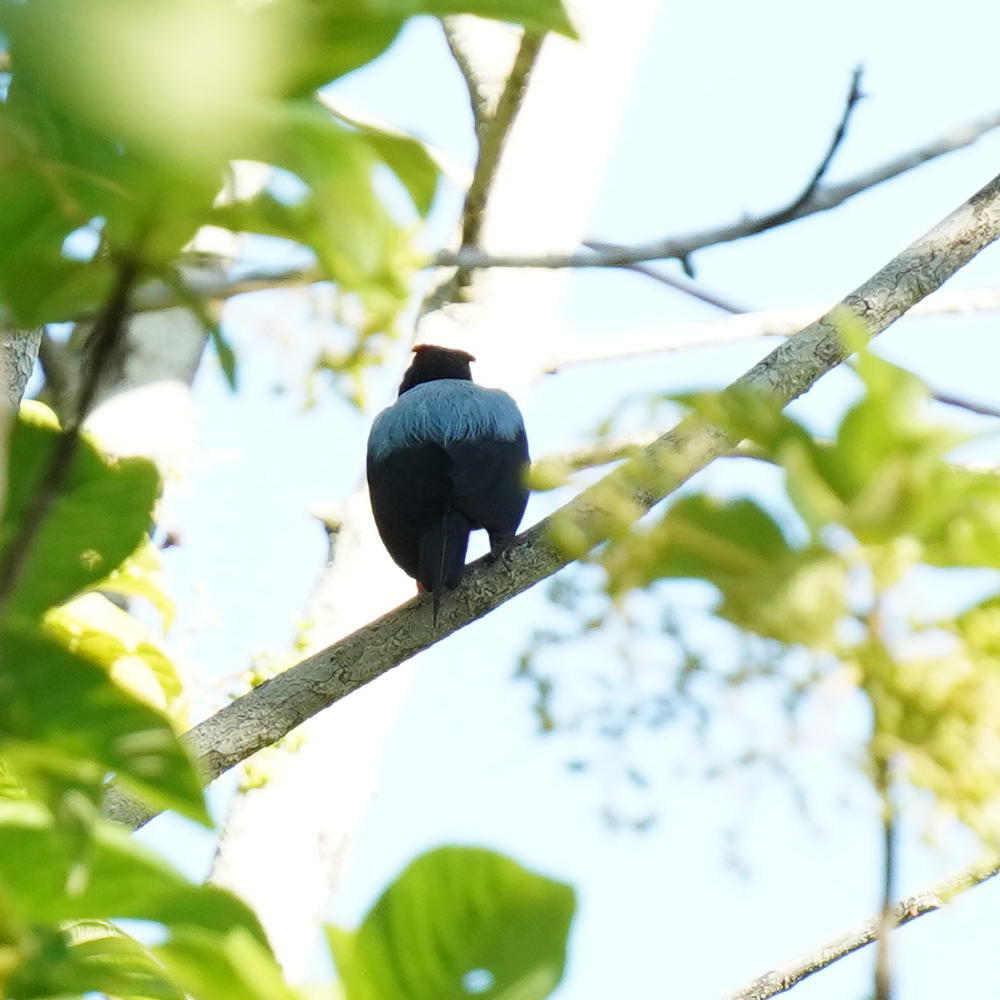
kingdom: Animalia
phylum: Chordata
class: Aves
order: Passeriformes
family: Pipridae
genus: Chiroxiphia
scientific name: Chiroxiphia lanceolata
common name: Lance-tailed manakin
